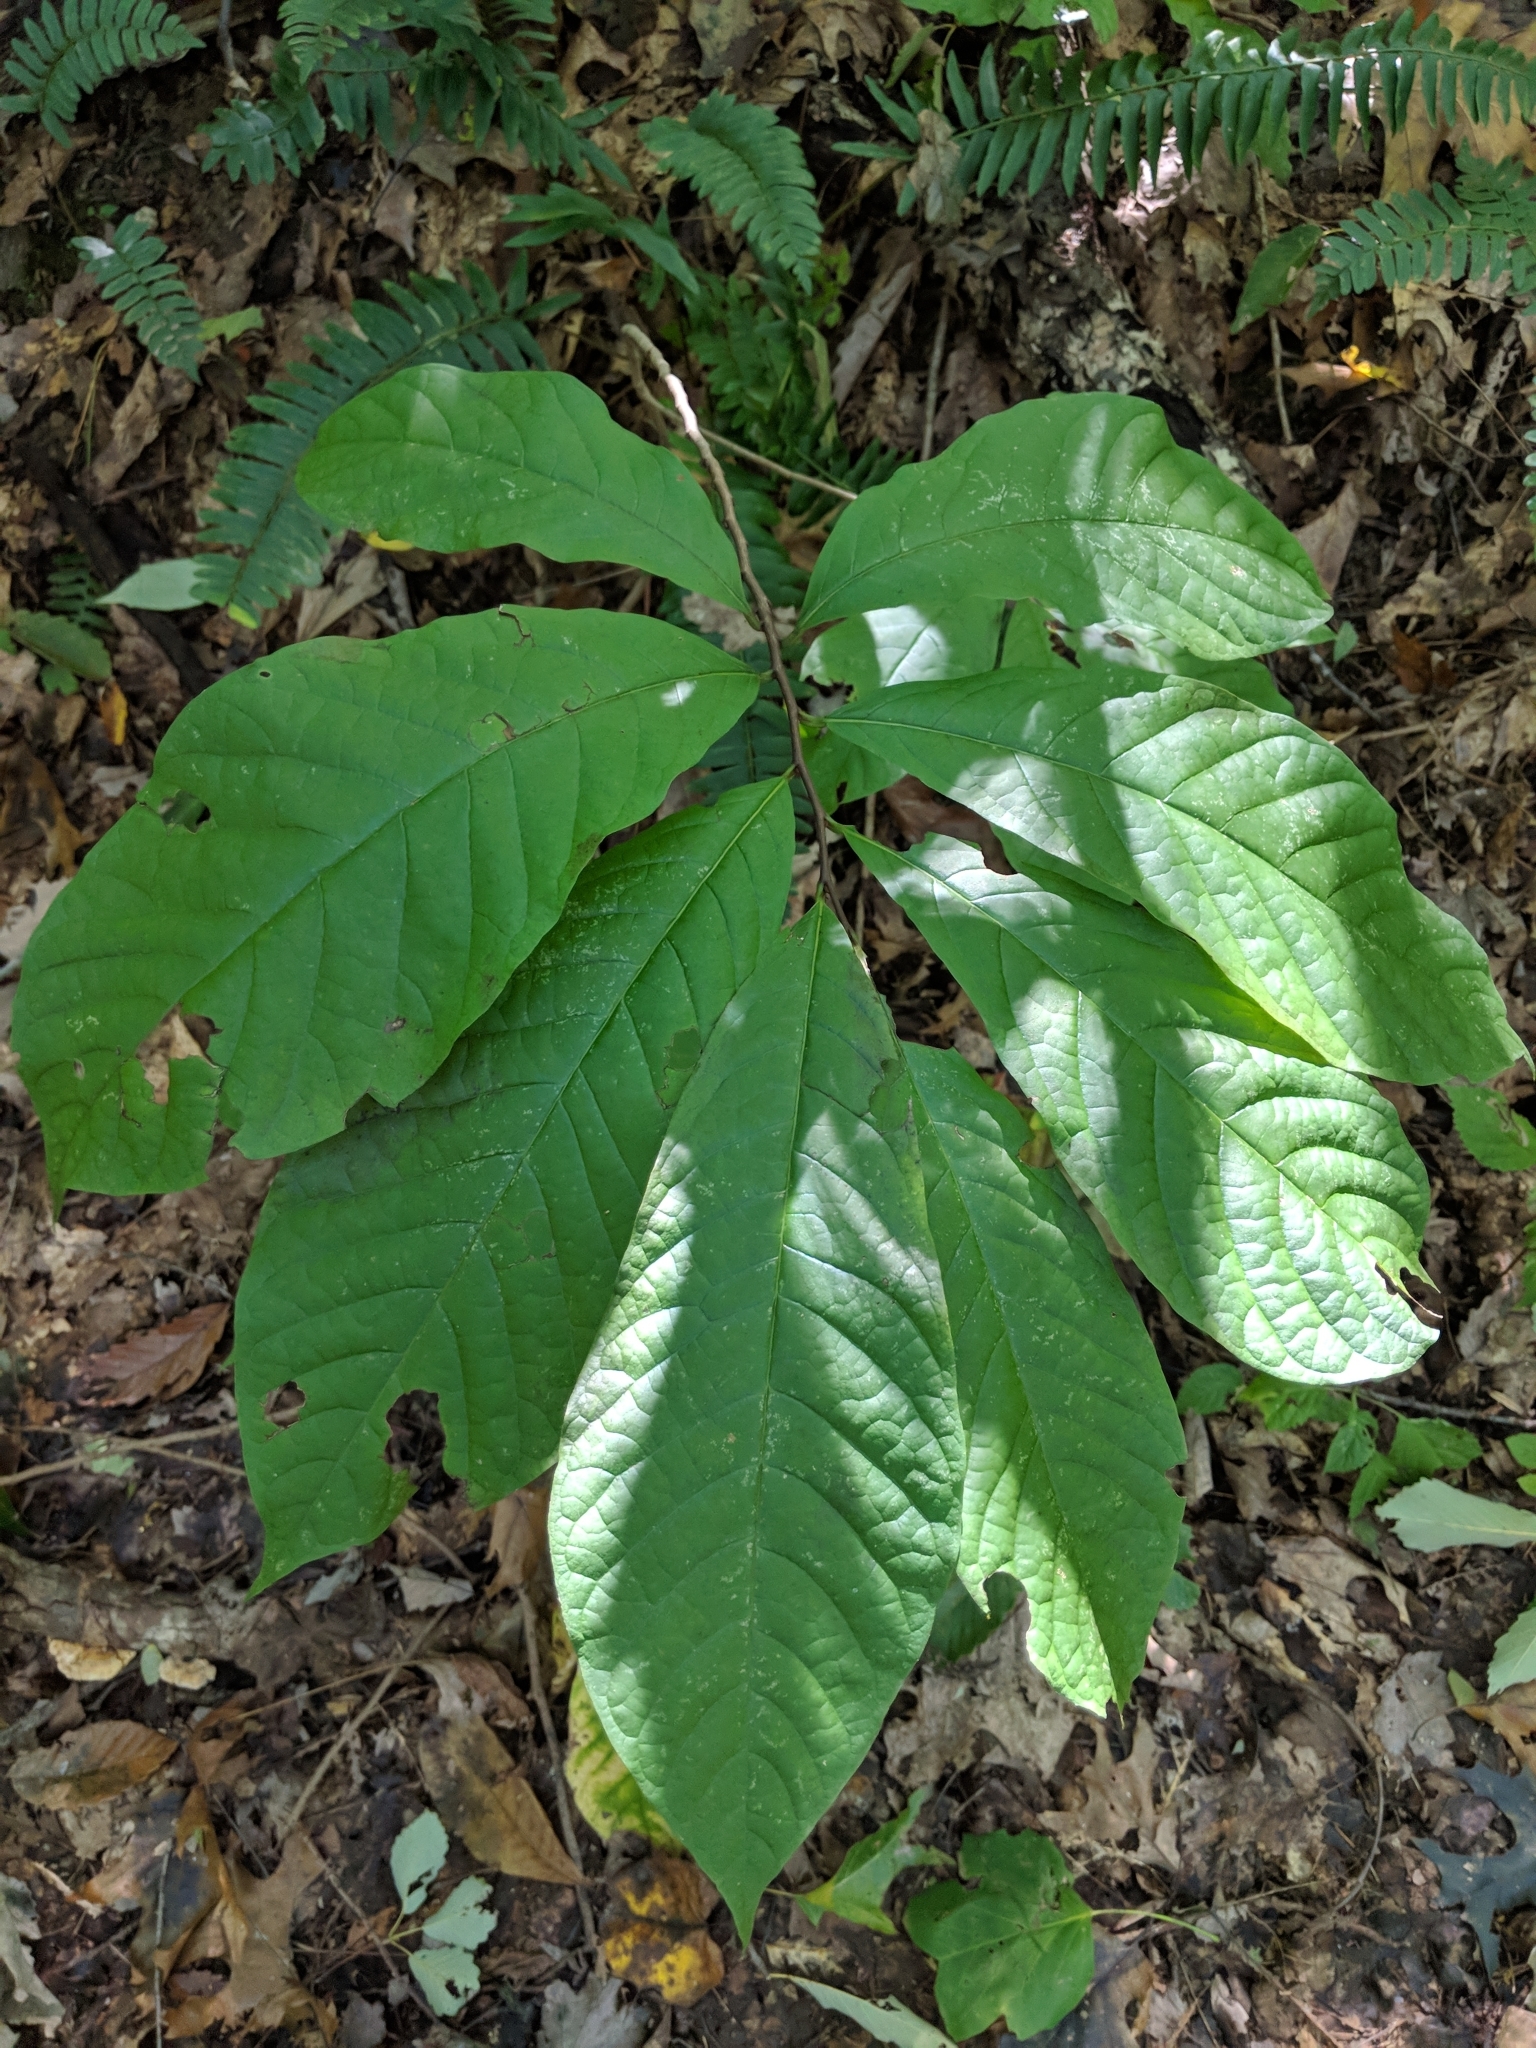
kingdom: Plantae
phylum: Tracheophyta
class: Magnoliopsida
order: Magnoliales
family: Annonaceae
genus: Asimina
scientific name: Asimina triloba
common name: Dog-banana
